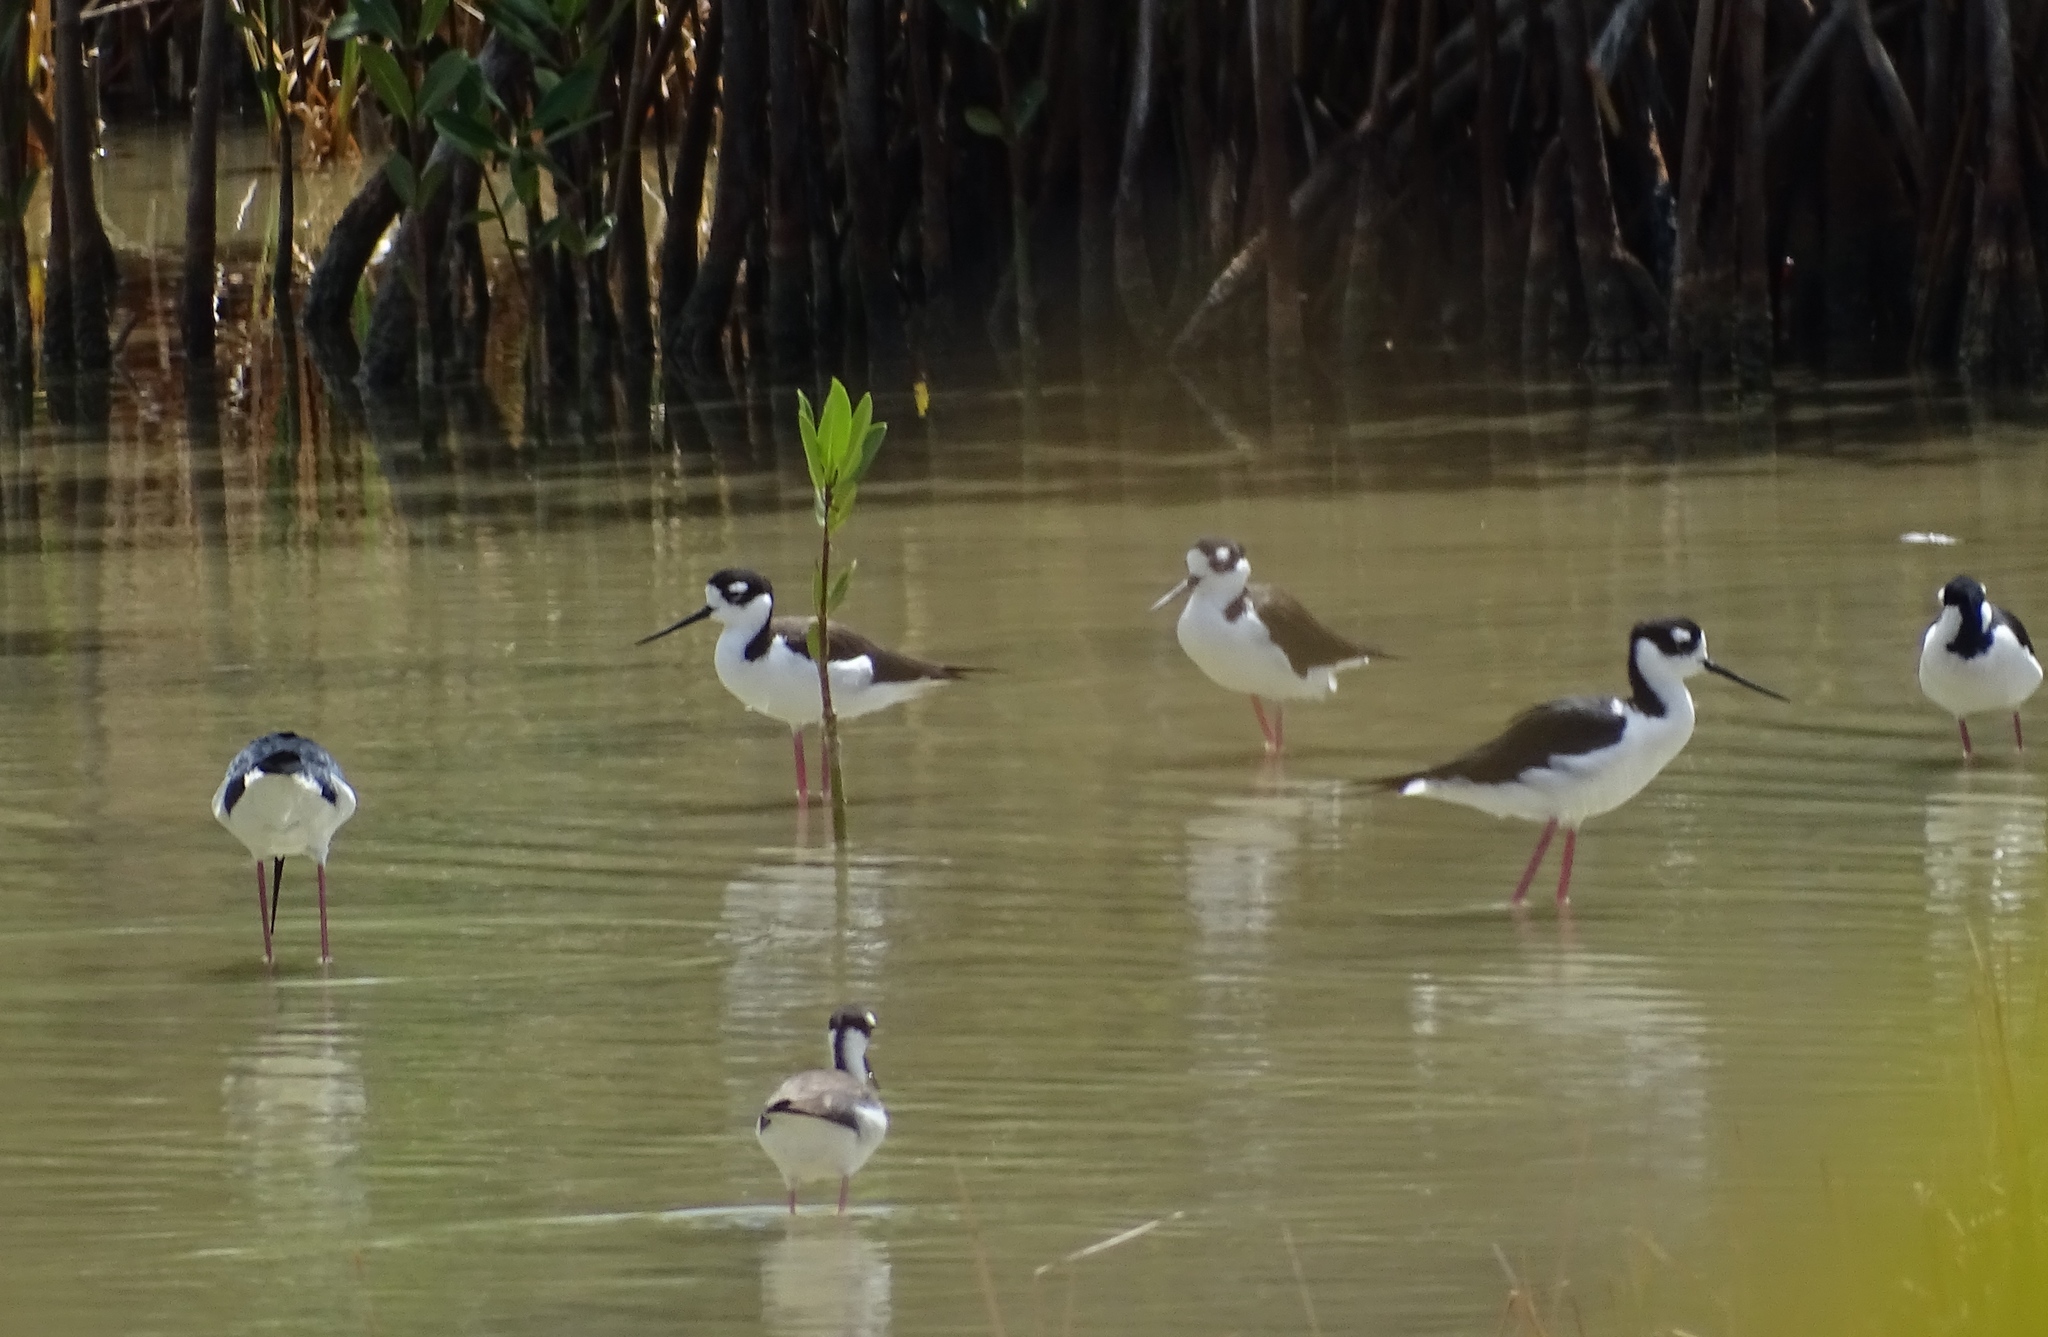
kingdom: Animalia
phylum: Chordata
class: Aves
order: Charadriiformes
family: Recurvirostridae
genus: Himantopus
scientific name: Himantopus mexicanus
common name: Black-necked stilt
